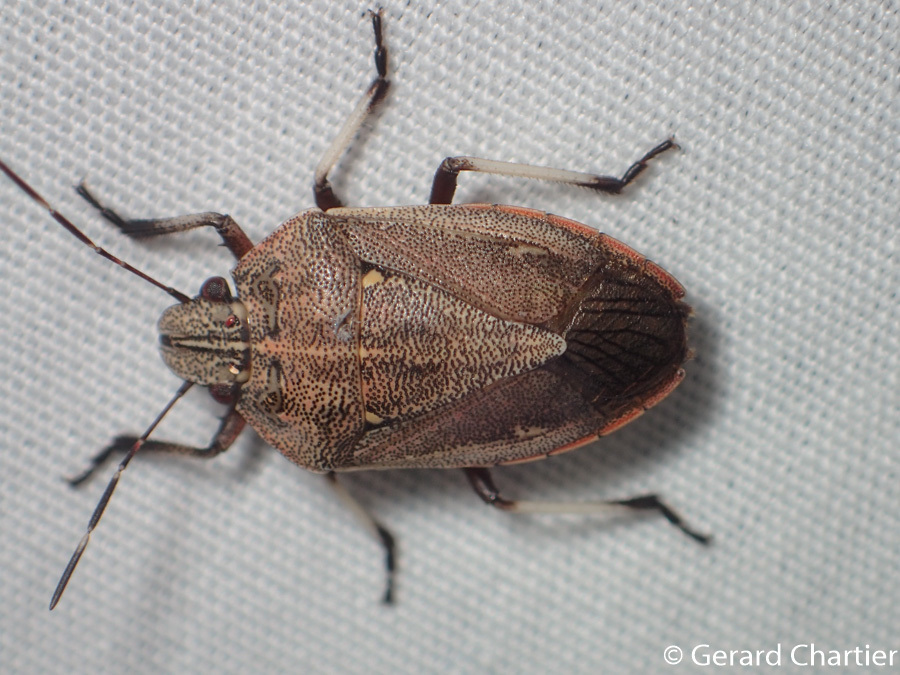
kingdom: Animalia
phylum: Arthropoda
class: Insecta
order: Hemiptera
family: Pentatomidae
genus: Laprius
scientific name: Laprius
